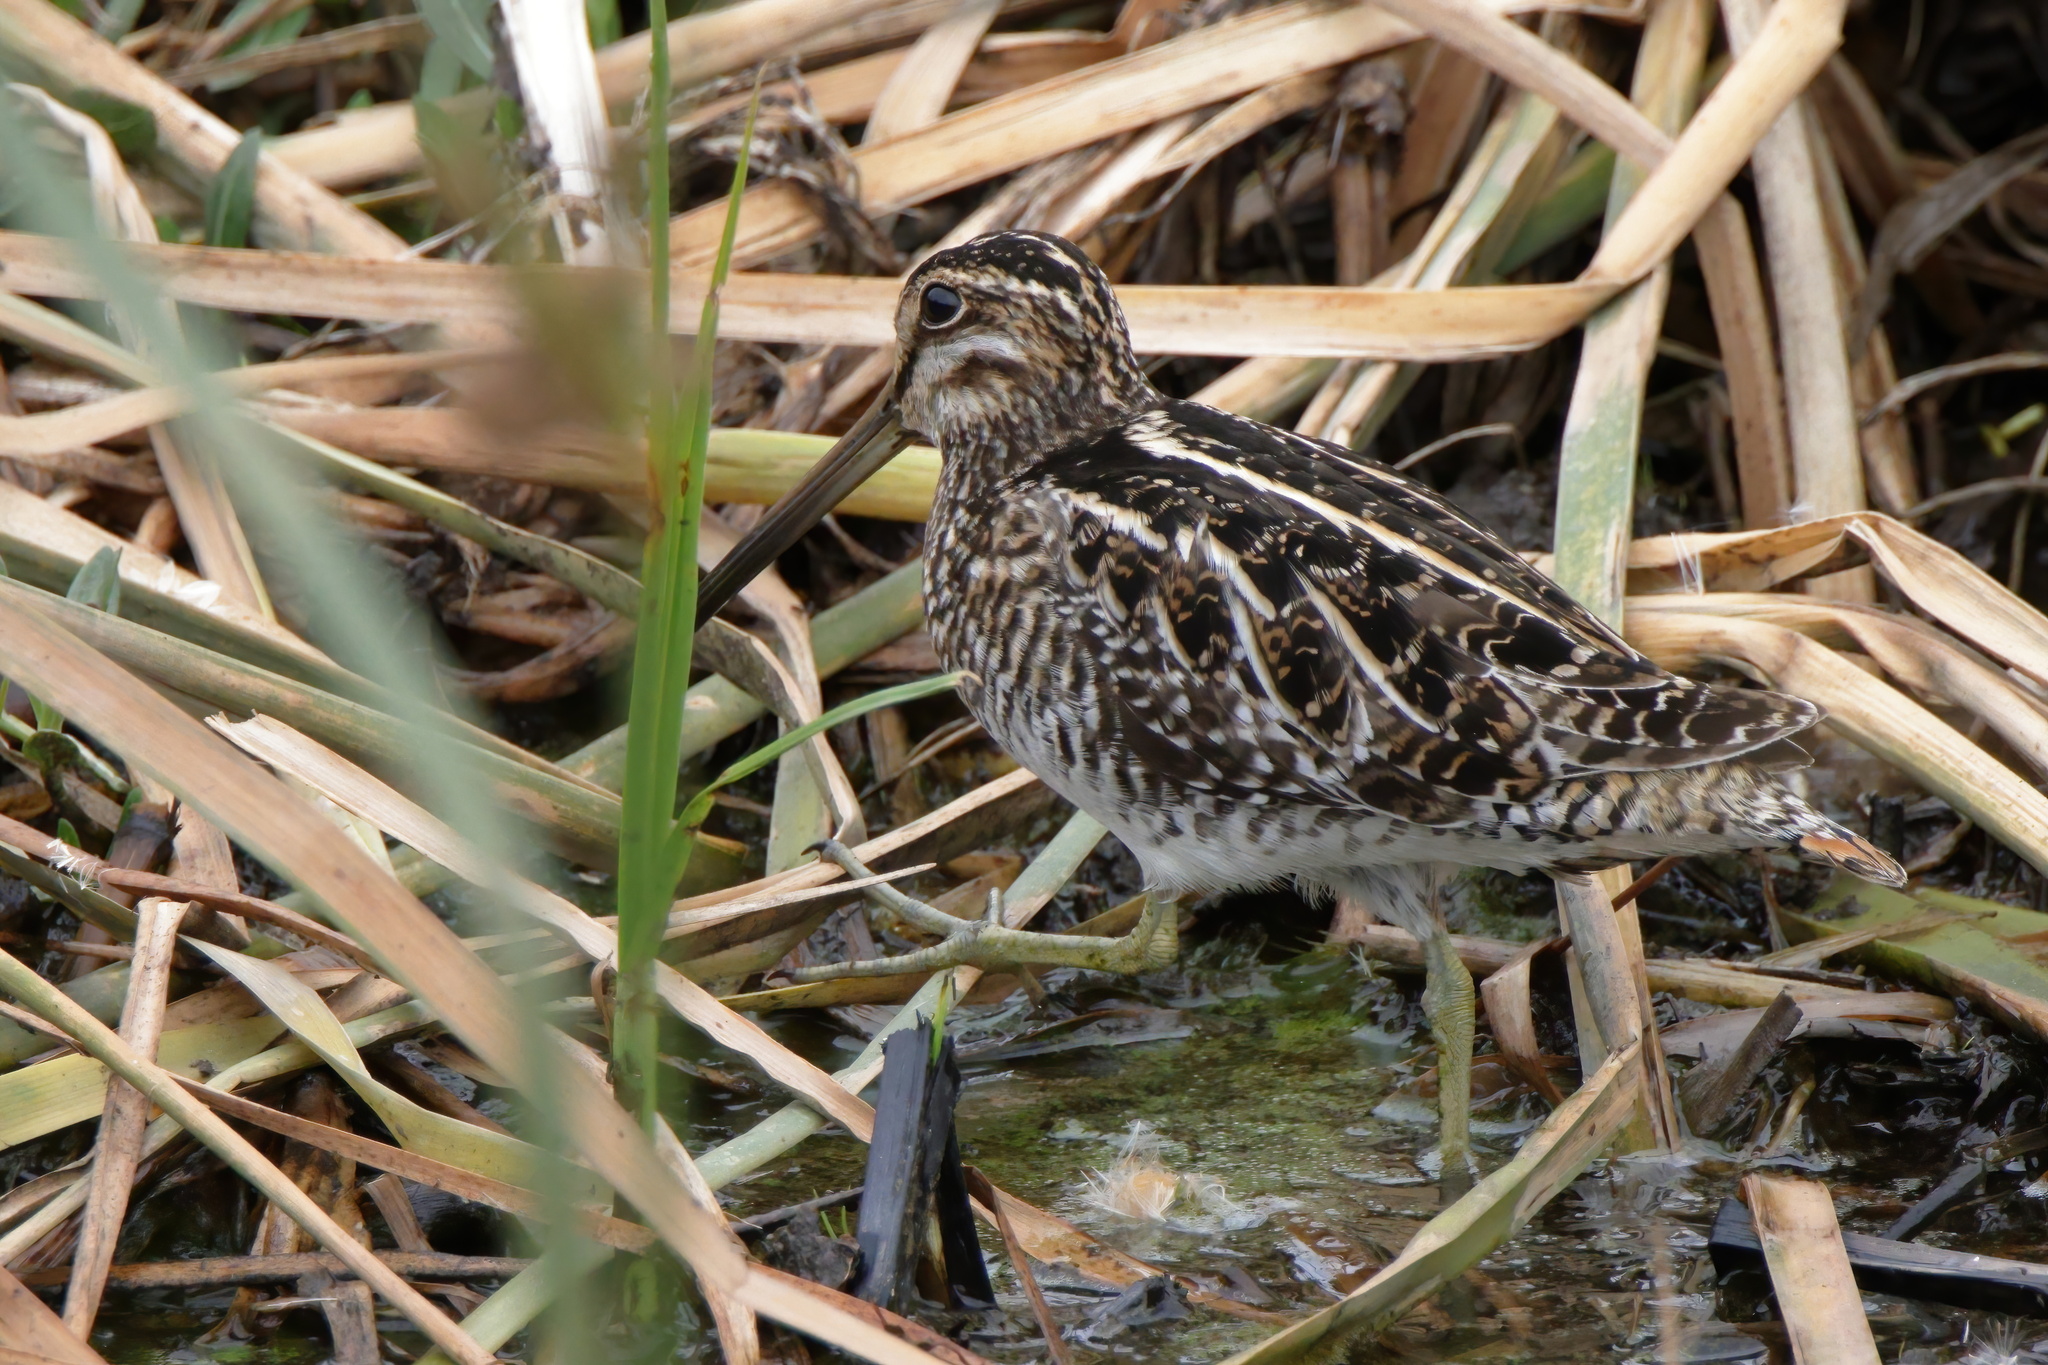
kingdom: Animalia
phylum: Chordata
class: Aves
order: Charadriiformes
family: Scolopacidae
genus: Gallinago
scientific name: Gallinago delicata
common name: Wilson's snipe
